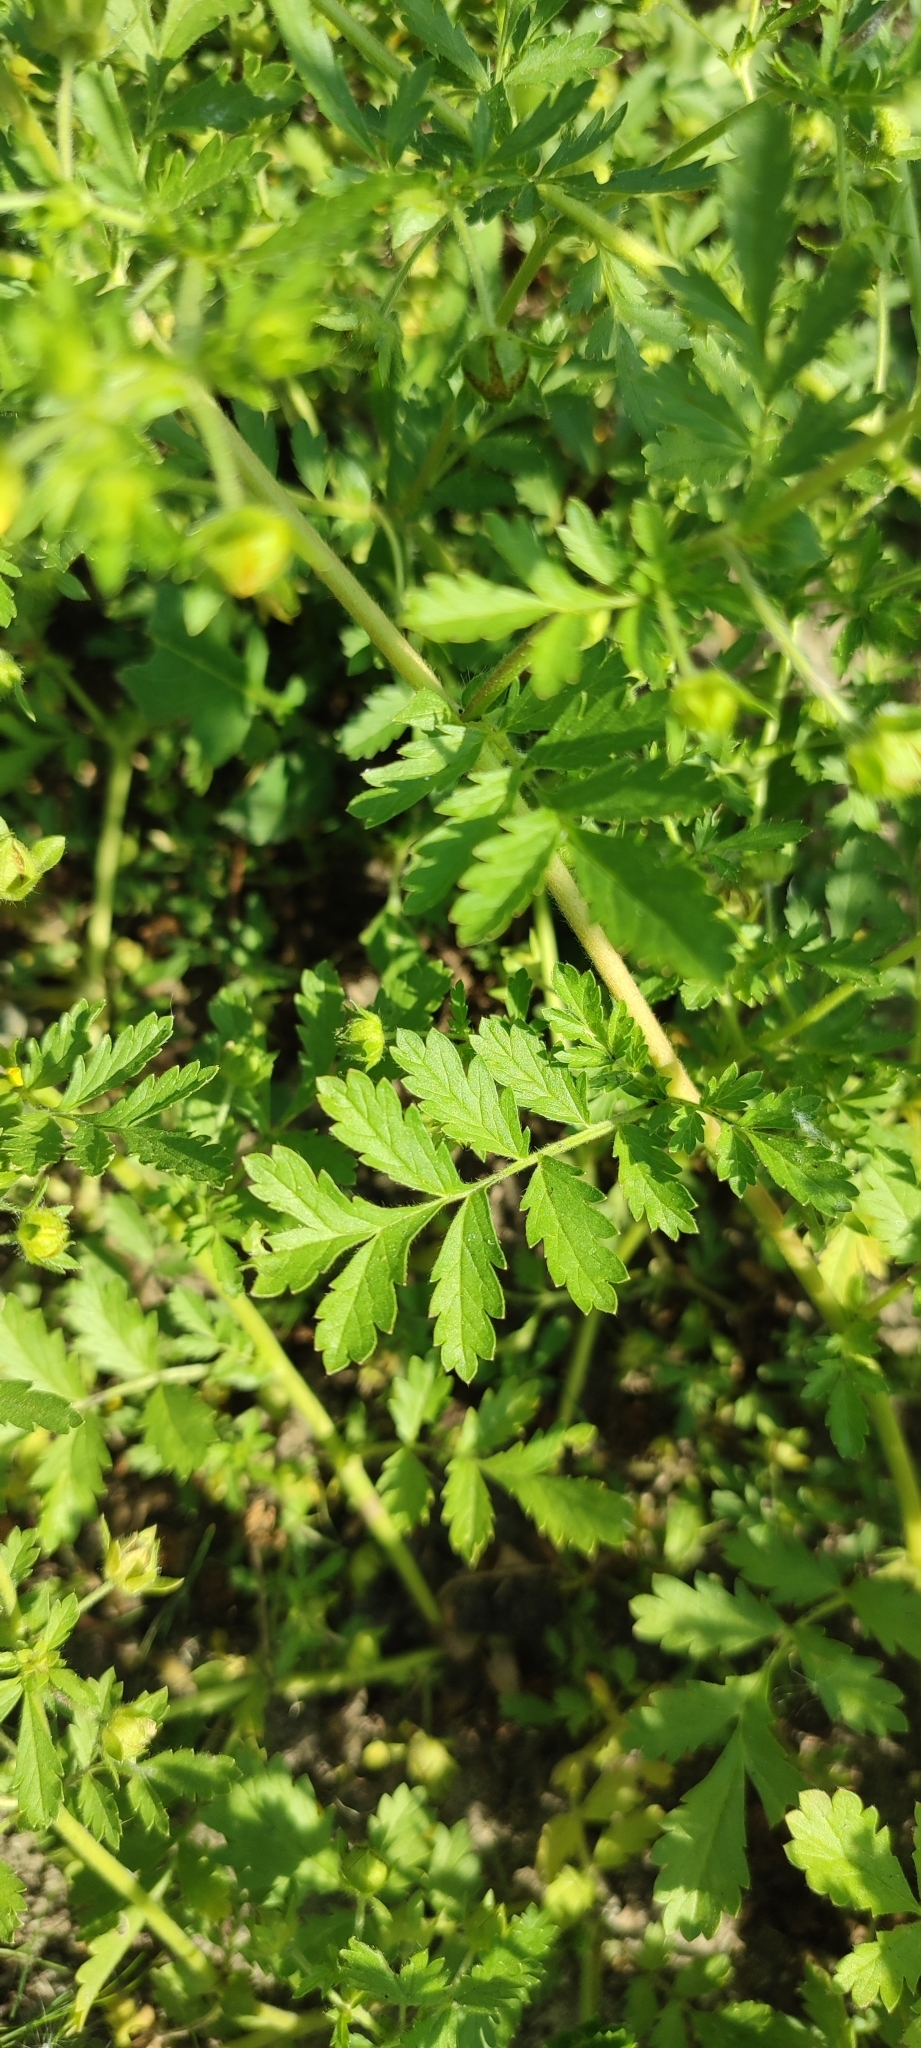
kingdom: Plantae
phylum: Tracheophyta
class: Magnoliopsida
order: Rosales
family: Rosaceae
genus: Potentilla
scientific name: Potentilla supina
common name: Prostrate cinquefoil
